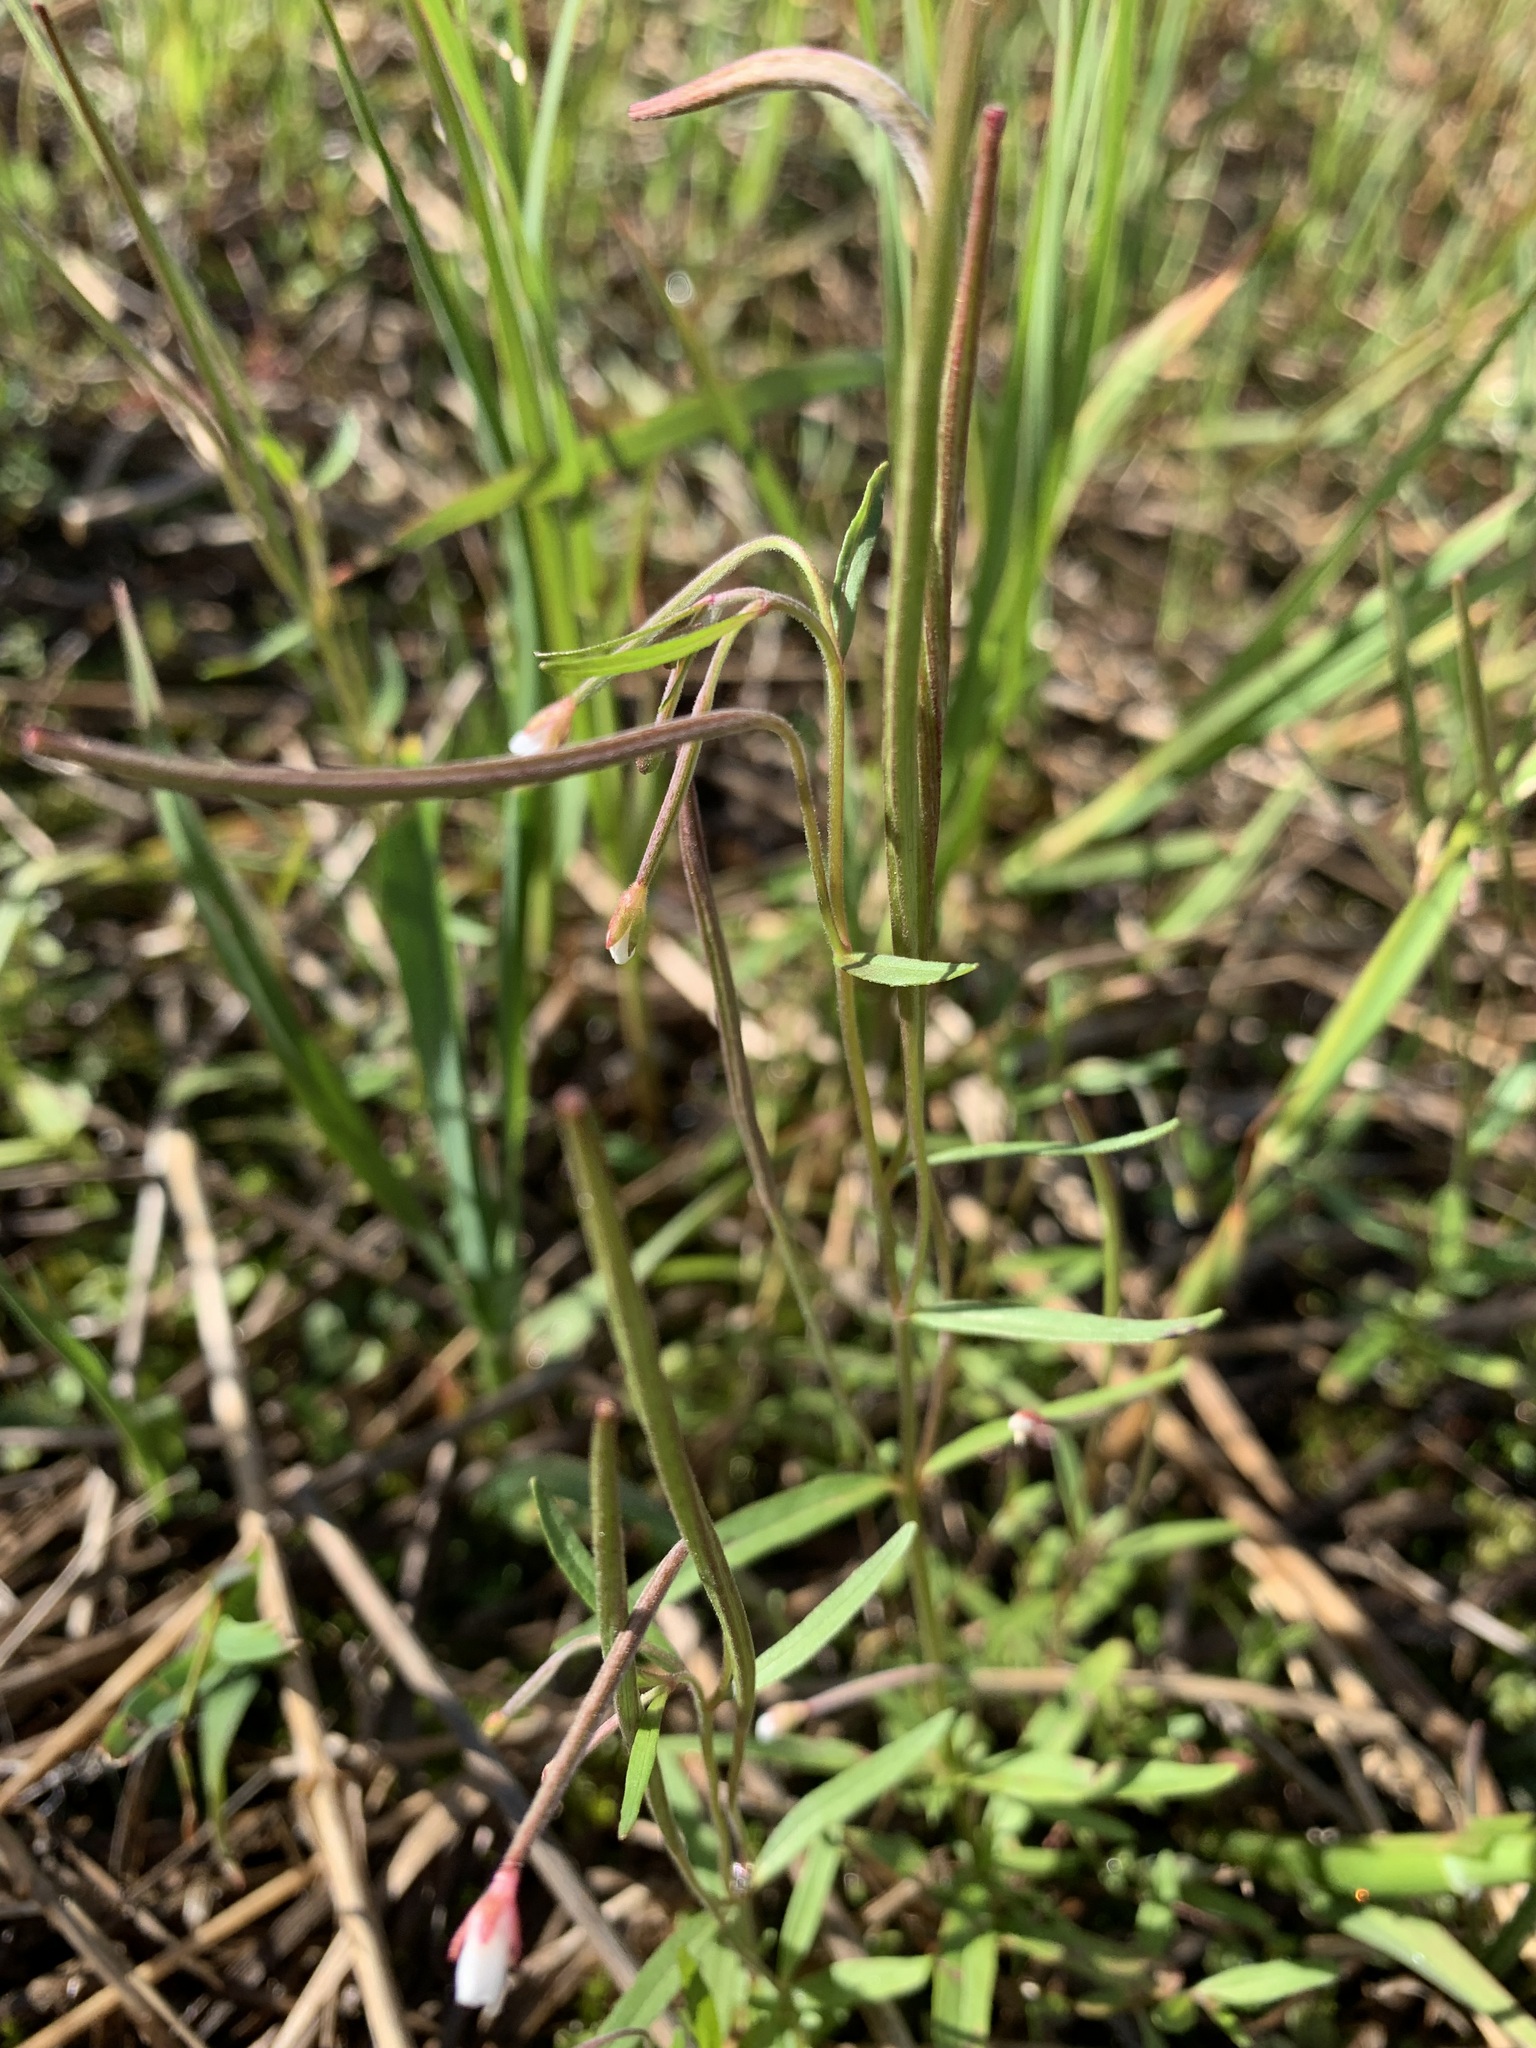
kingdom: Plantae
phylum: Tracheophyta
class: Magnoliopsida
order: Myrtales
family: Onagraceae
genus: Epilobium
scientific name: Epilobium palustre
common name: Marsh willowherb
